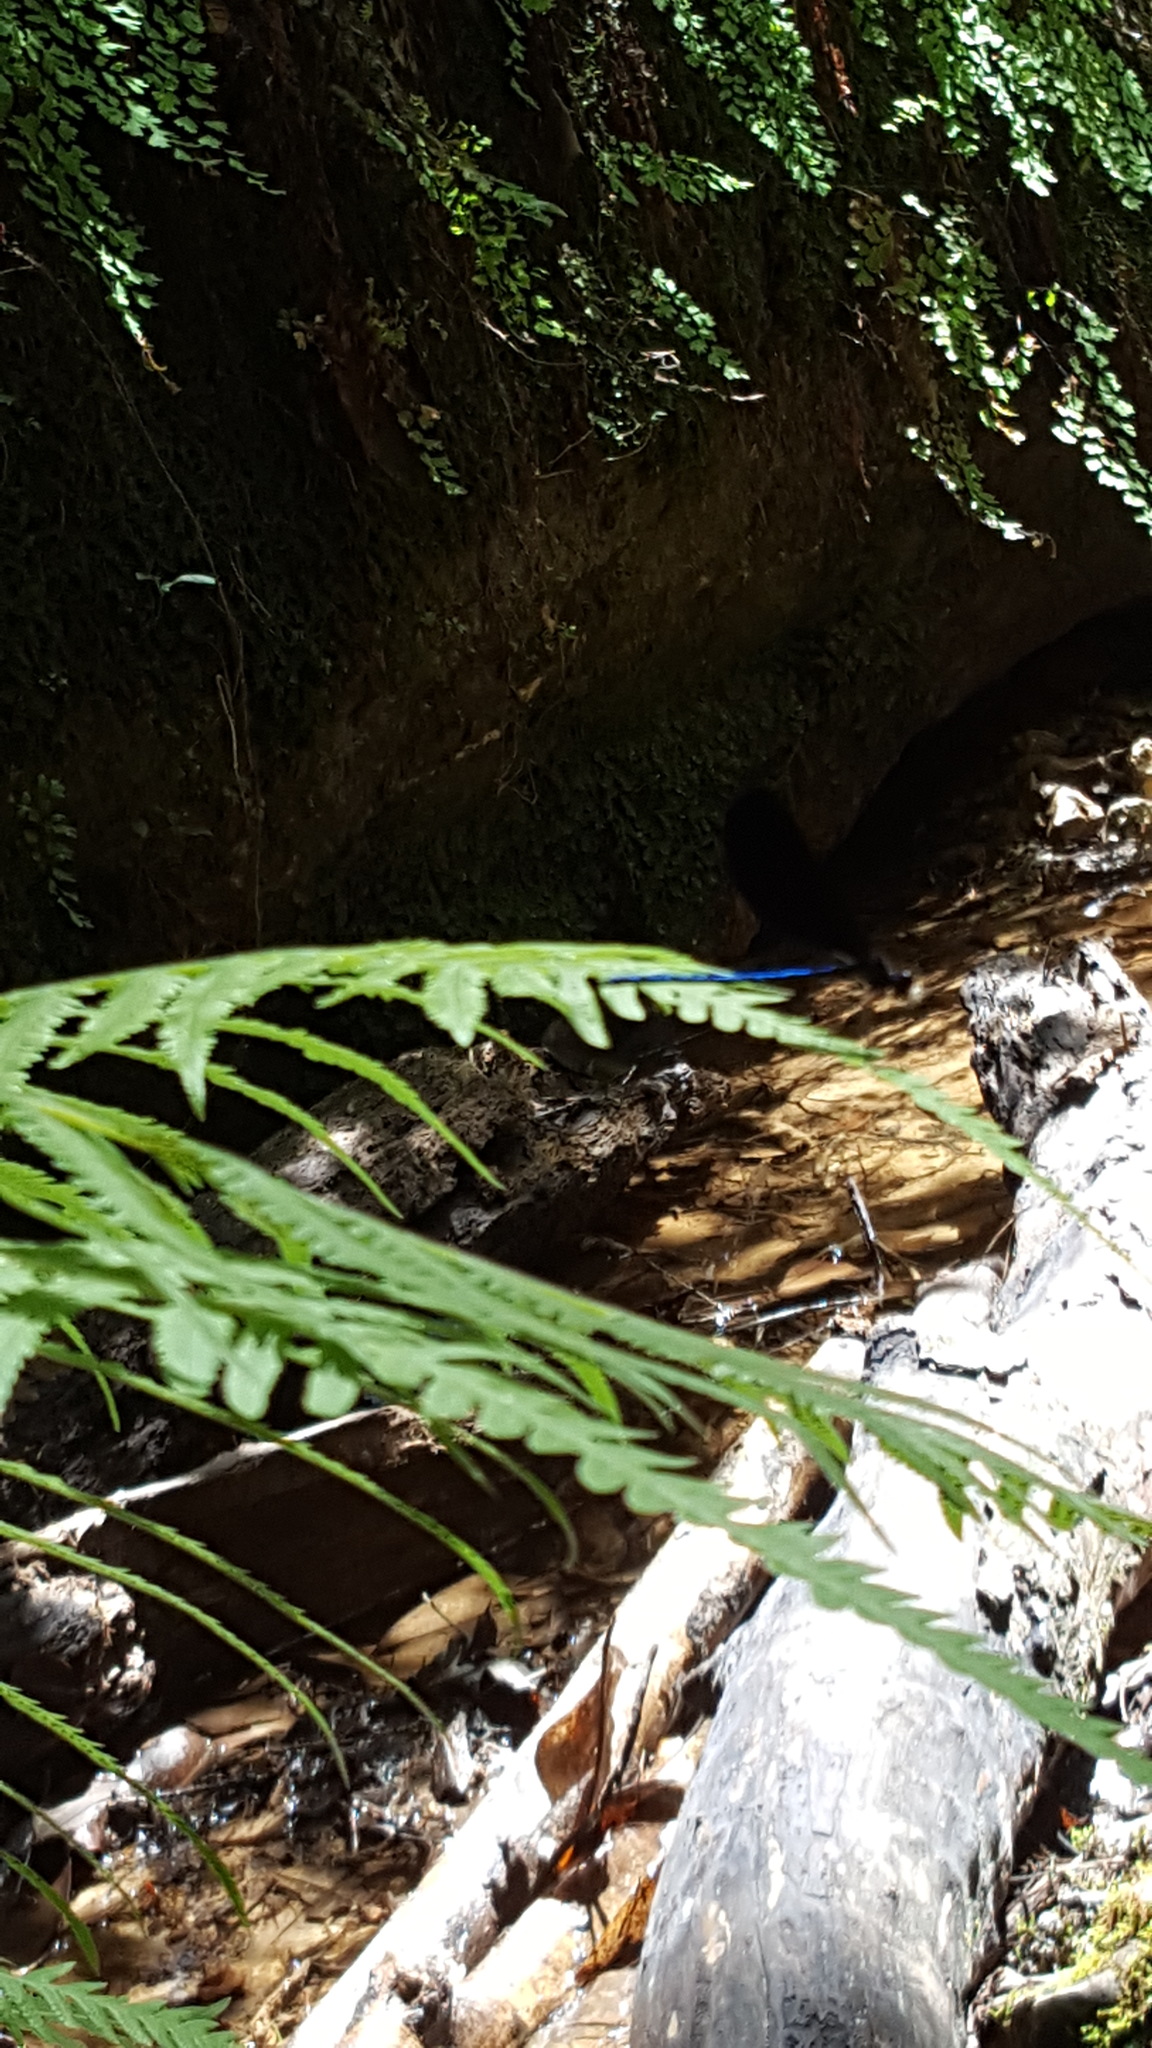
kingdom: Animalia
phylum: Arthropoda
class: Insecta
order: Odonata
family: Calopterygidae
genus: Calopteryx
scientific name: Calopteryx maculata
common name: Ebony jewelwing
